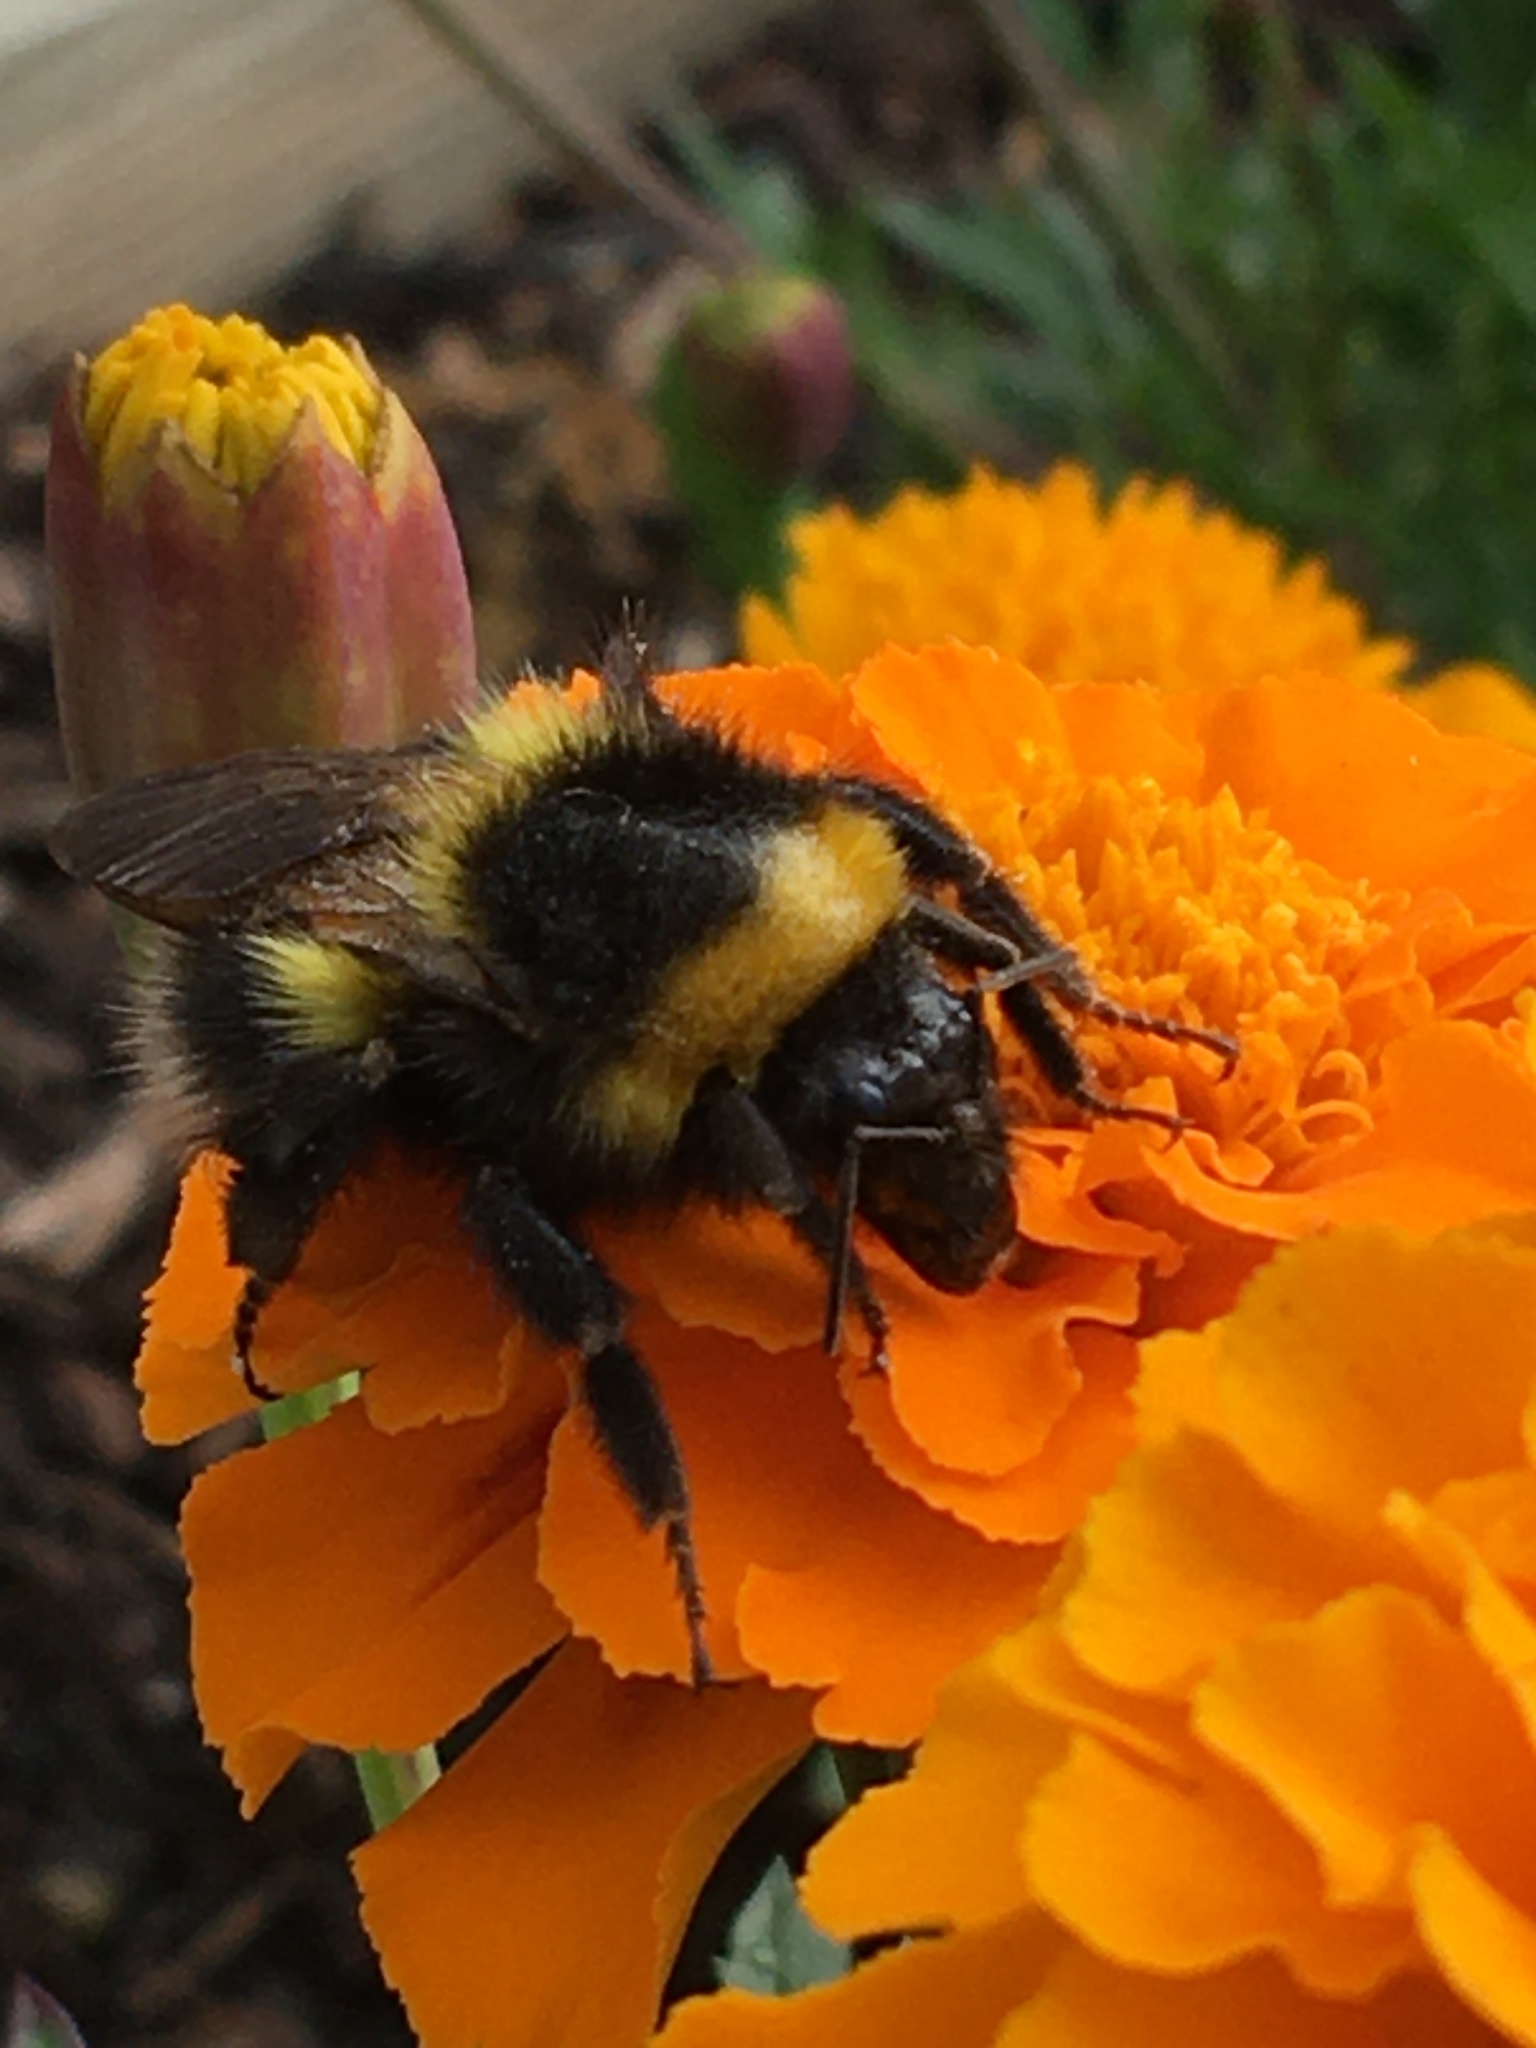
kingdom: Animalia
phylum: Arthropoda
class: Insecta
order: Hymenoptera
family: Apidae
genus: Bombus
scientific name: Bombus hortorum
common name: Garden bumblebee
